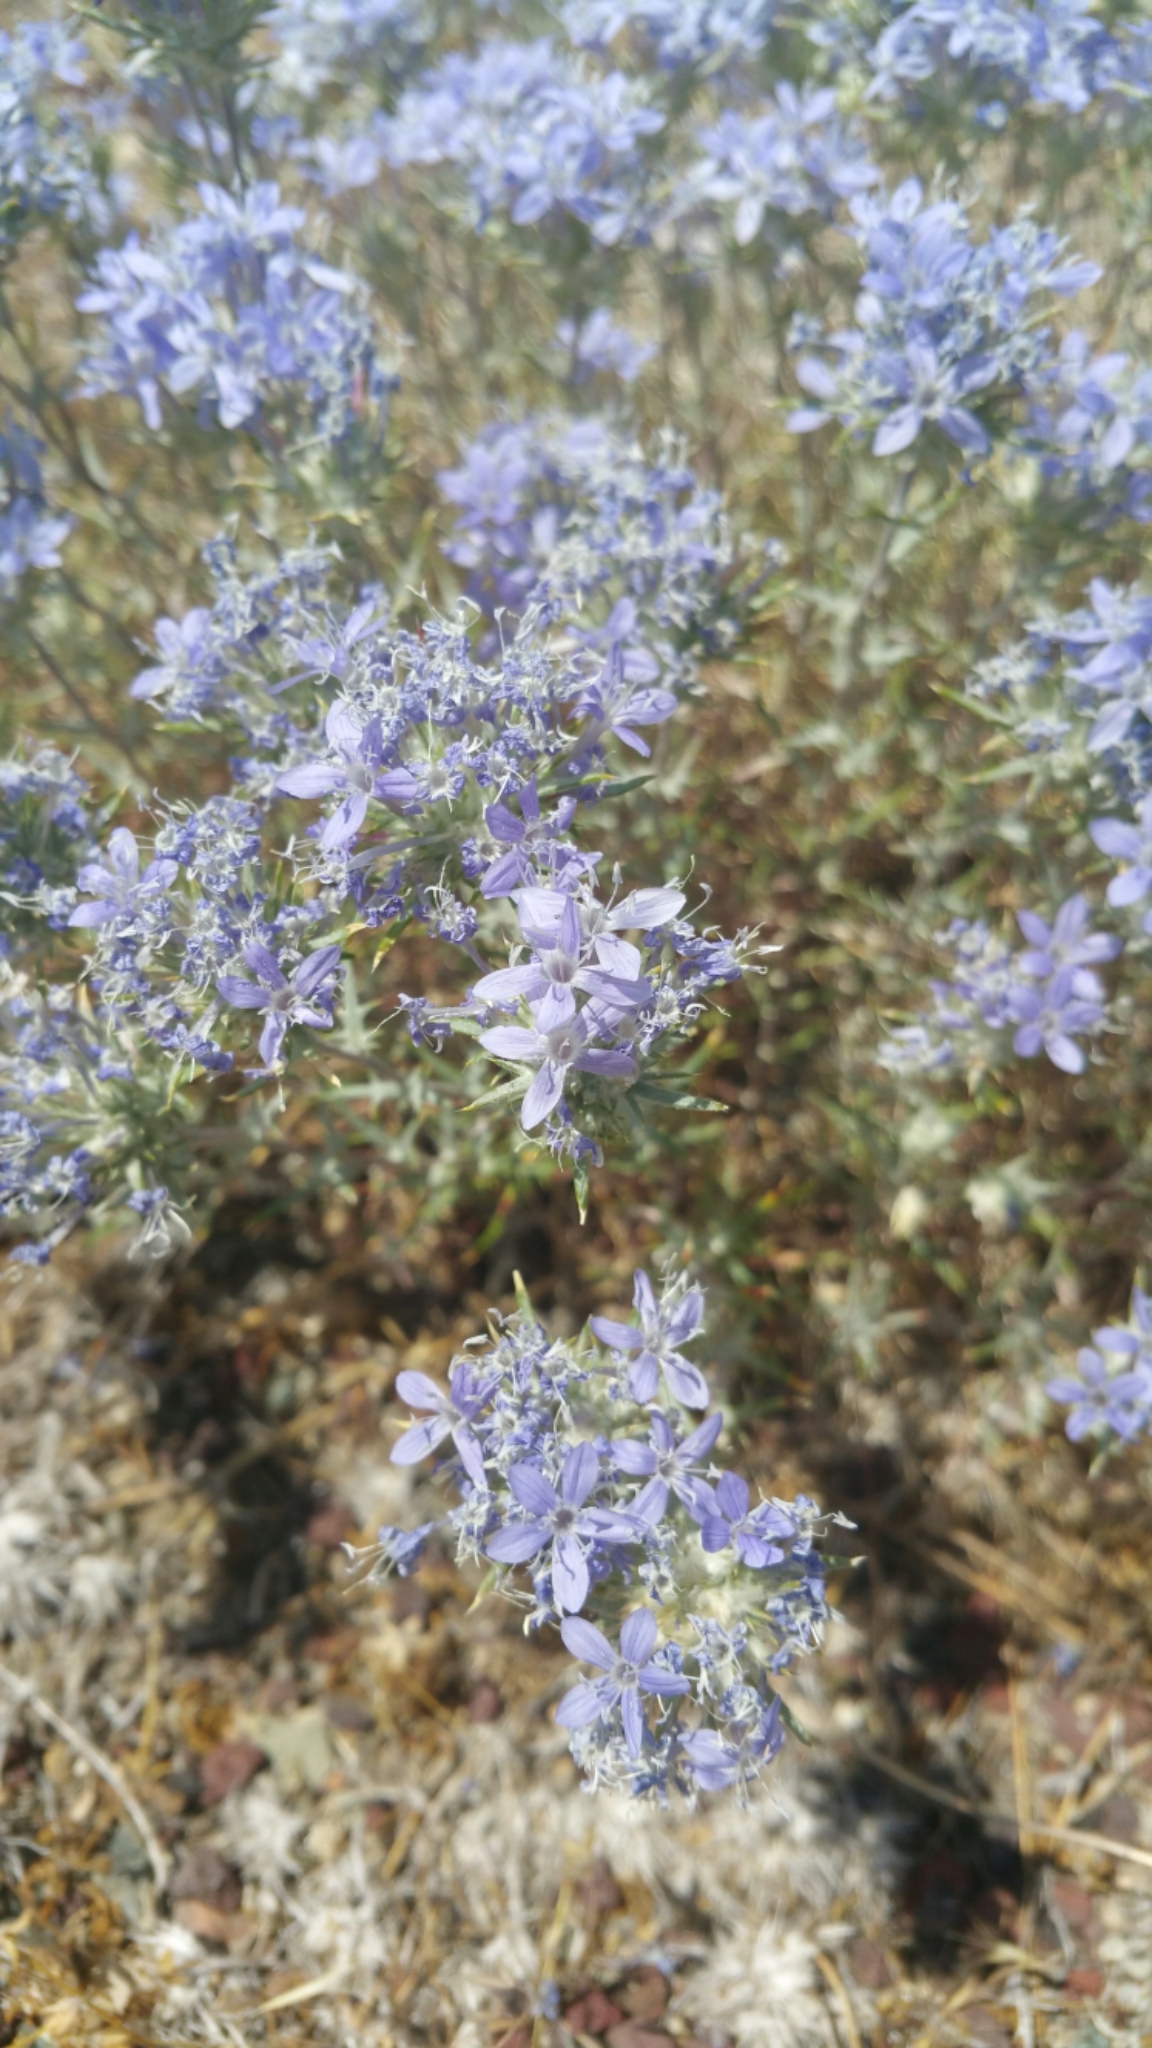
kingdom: Plantae
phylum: Tracheophyta
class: Magnoliopsida
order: Ericales
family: Polemoniaceae
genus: Eriastrum
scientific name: Eriastrum densifolium
